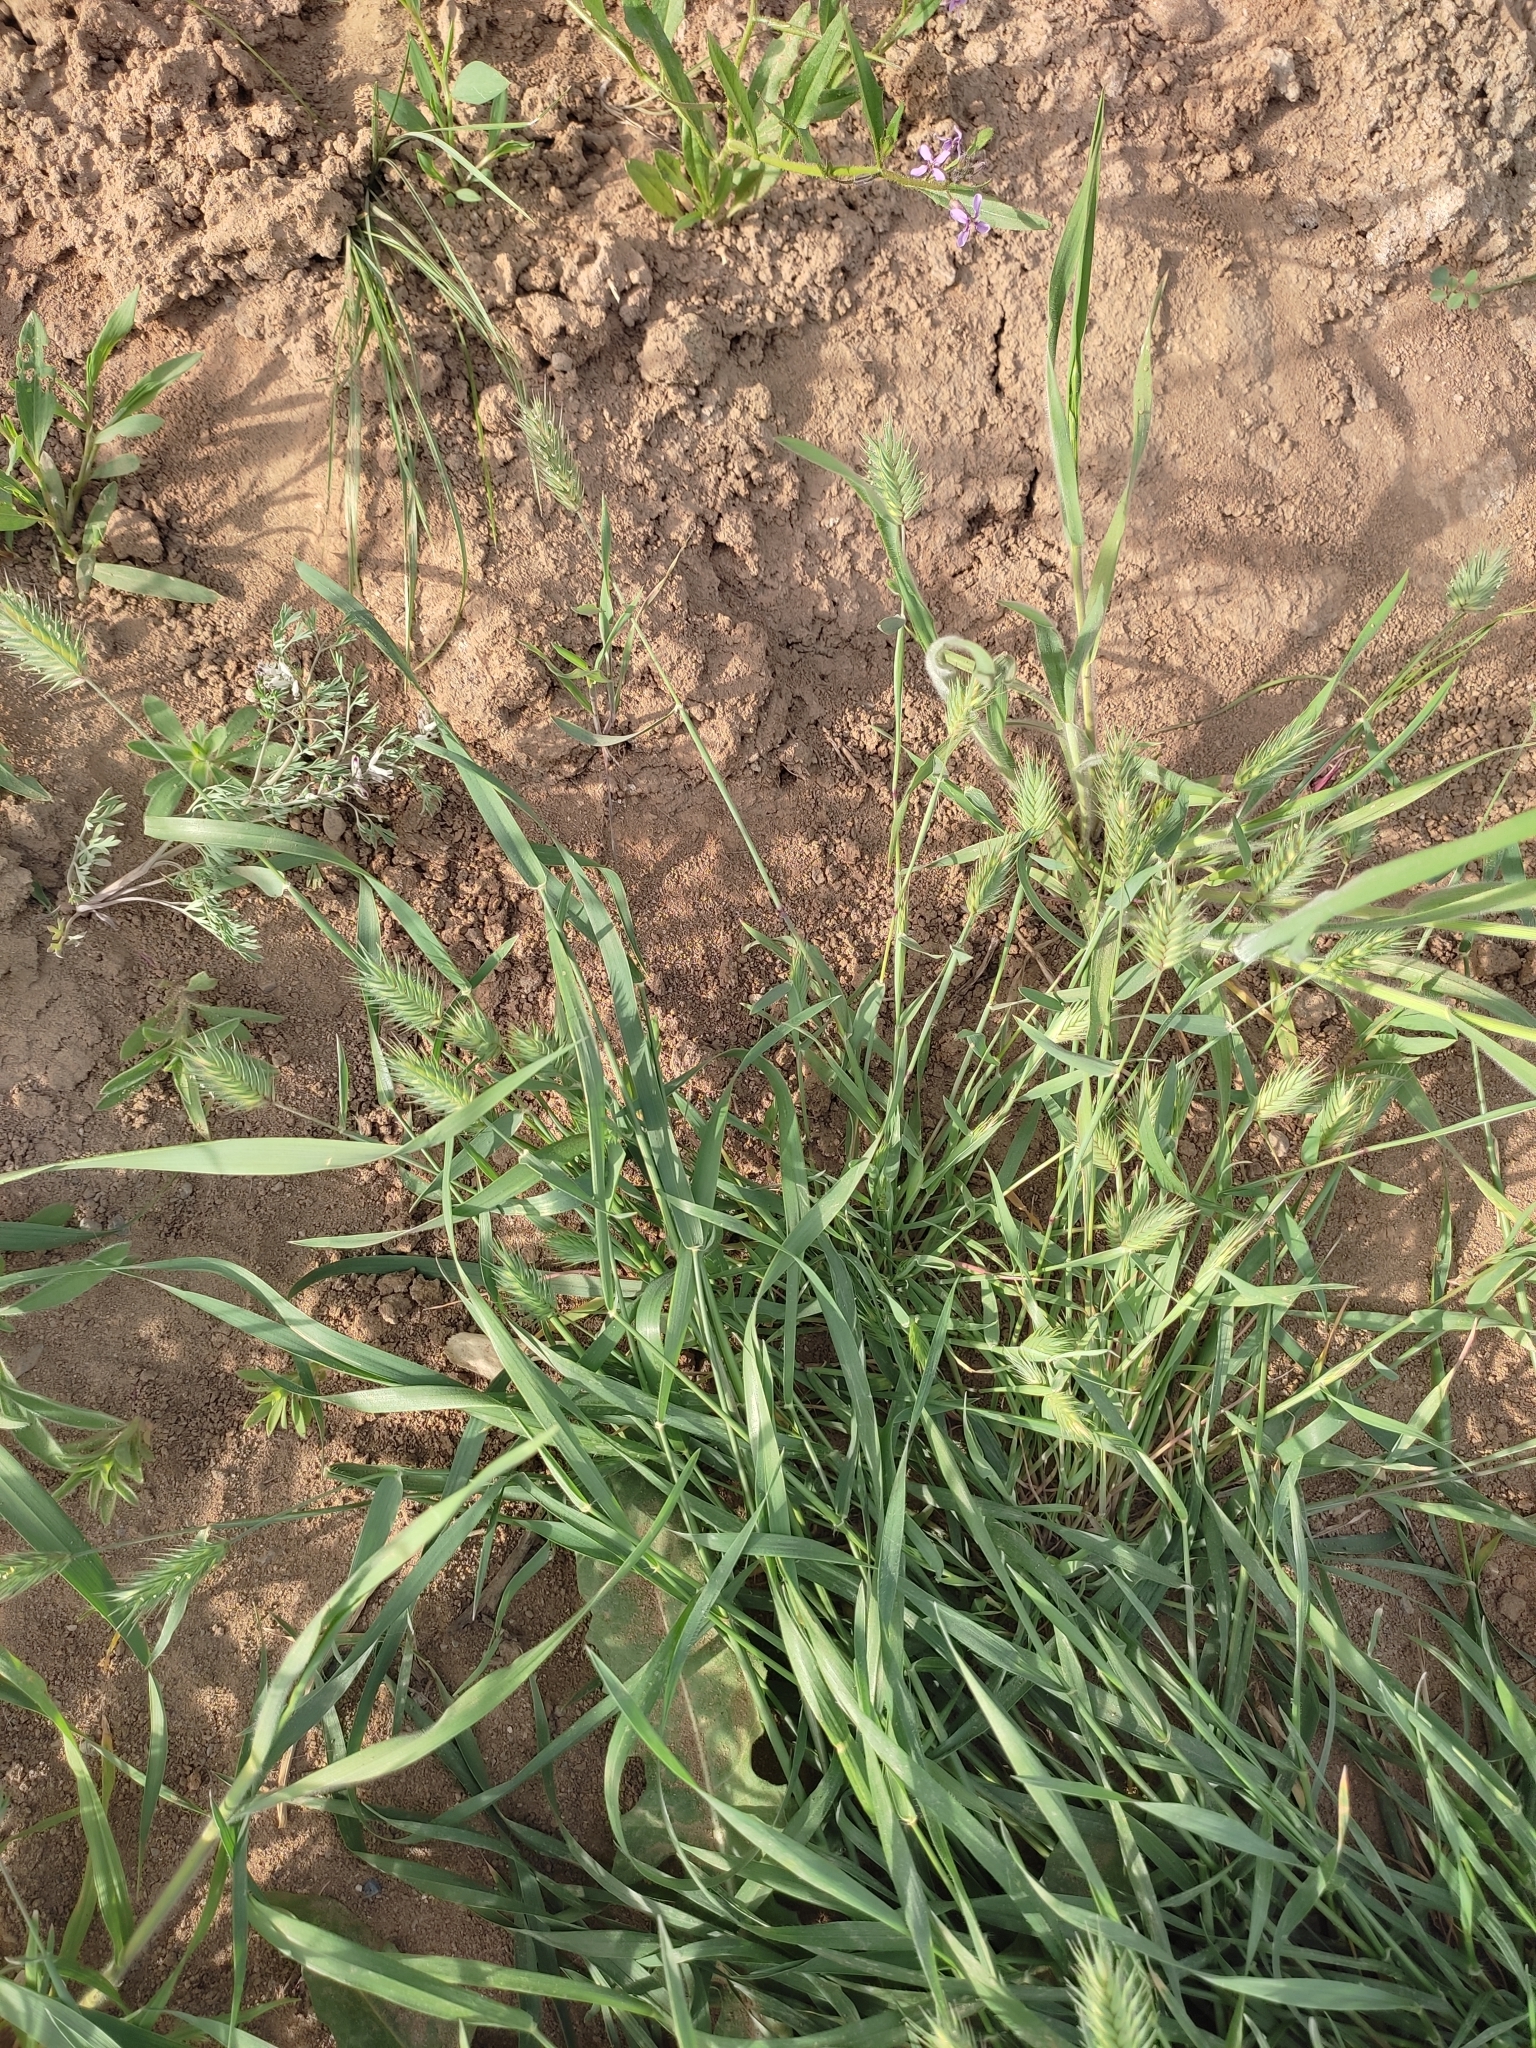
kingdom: Plantae
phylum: Tracheophyta
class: Liliopsida
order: Poales
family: Poaceae
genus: Poa
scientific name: Poa bulbosa
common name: Bulbous bluegrass
